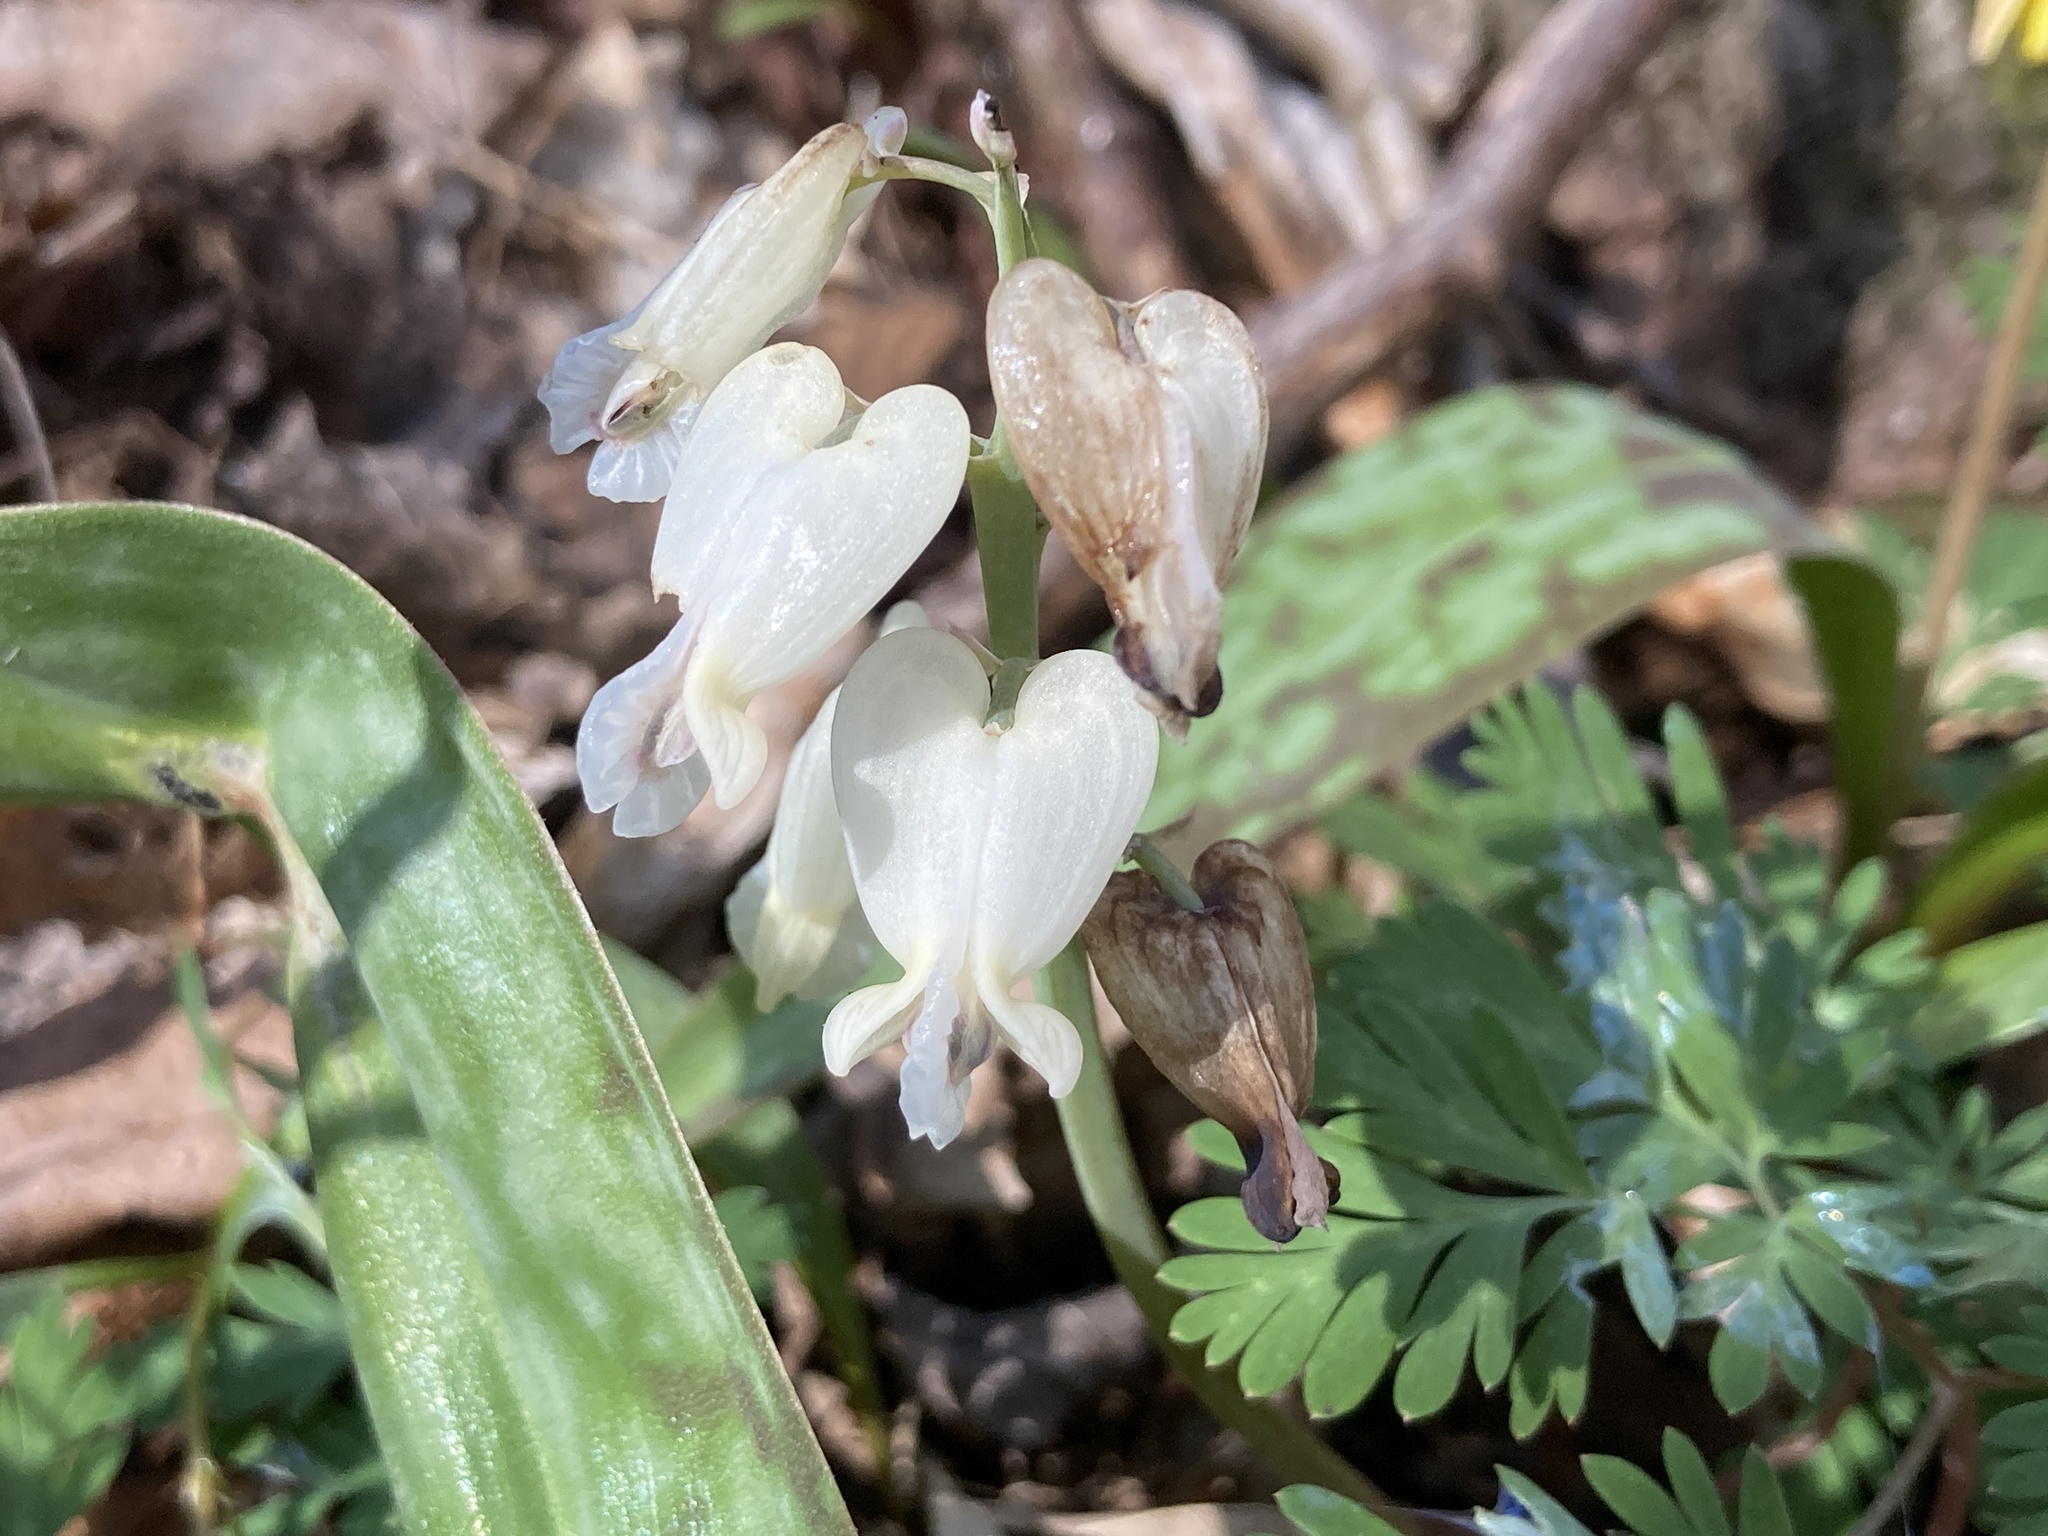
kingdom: Plantae
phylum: Tracheophyta
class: Magnoliopsida
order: Ranunculales
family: Papaveraceae
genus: Dicentra
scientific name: Dicentra canadensis
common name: Squirrel-corn
